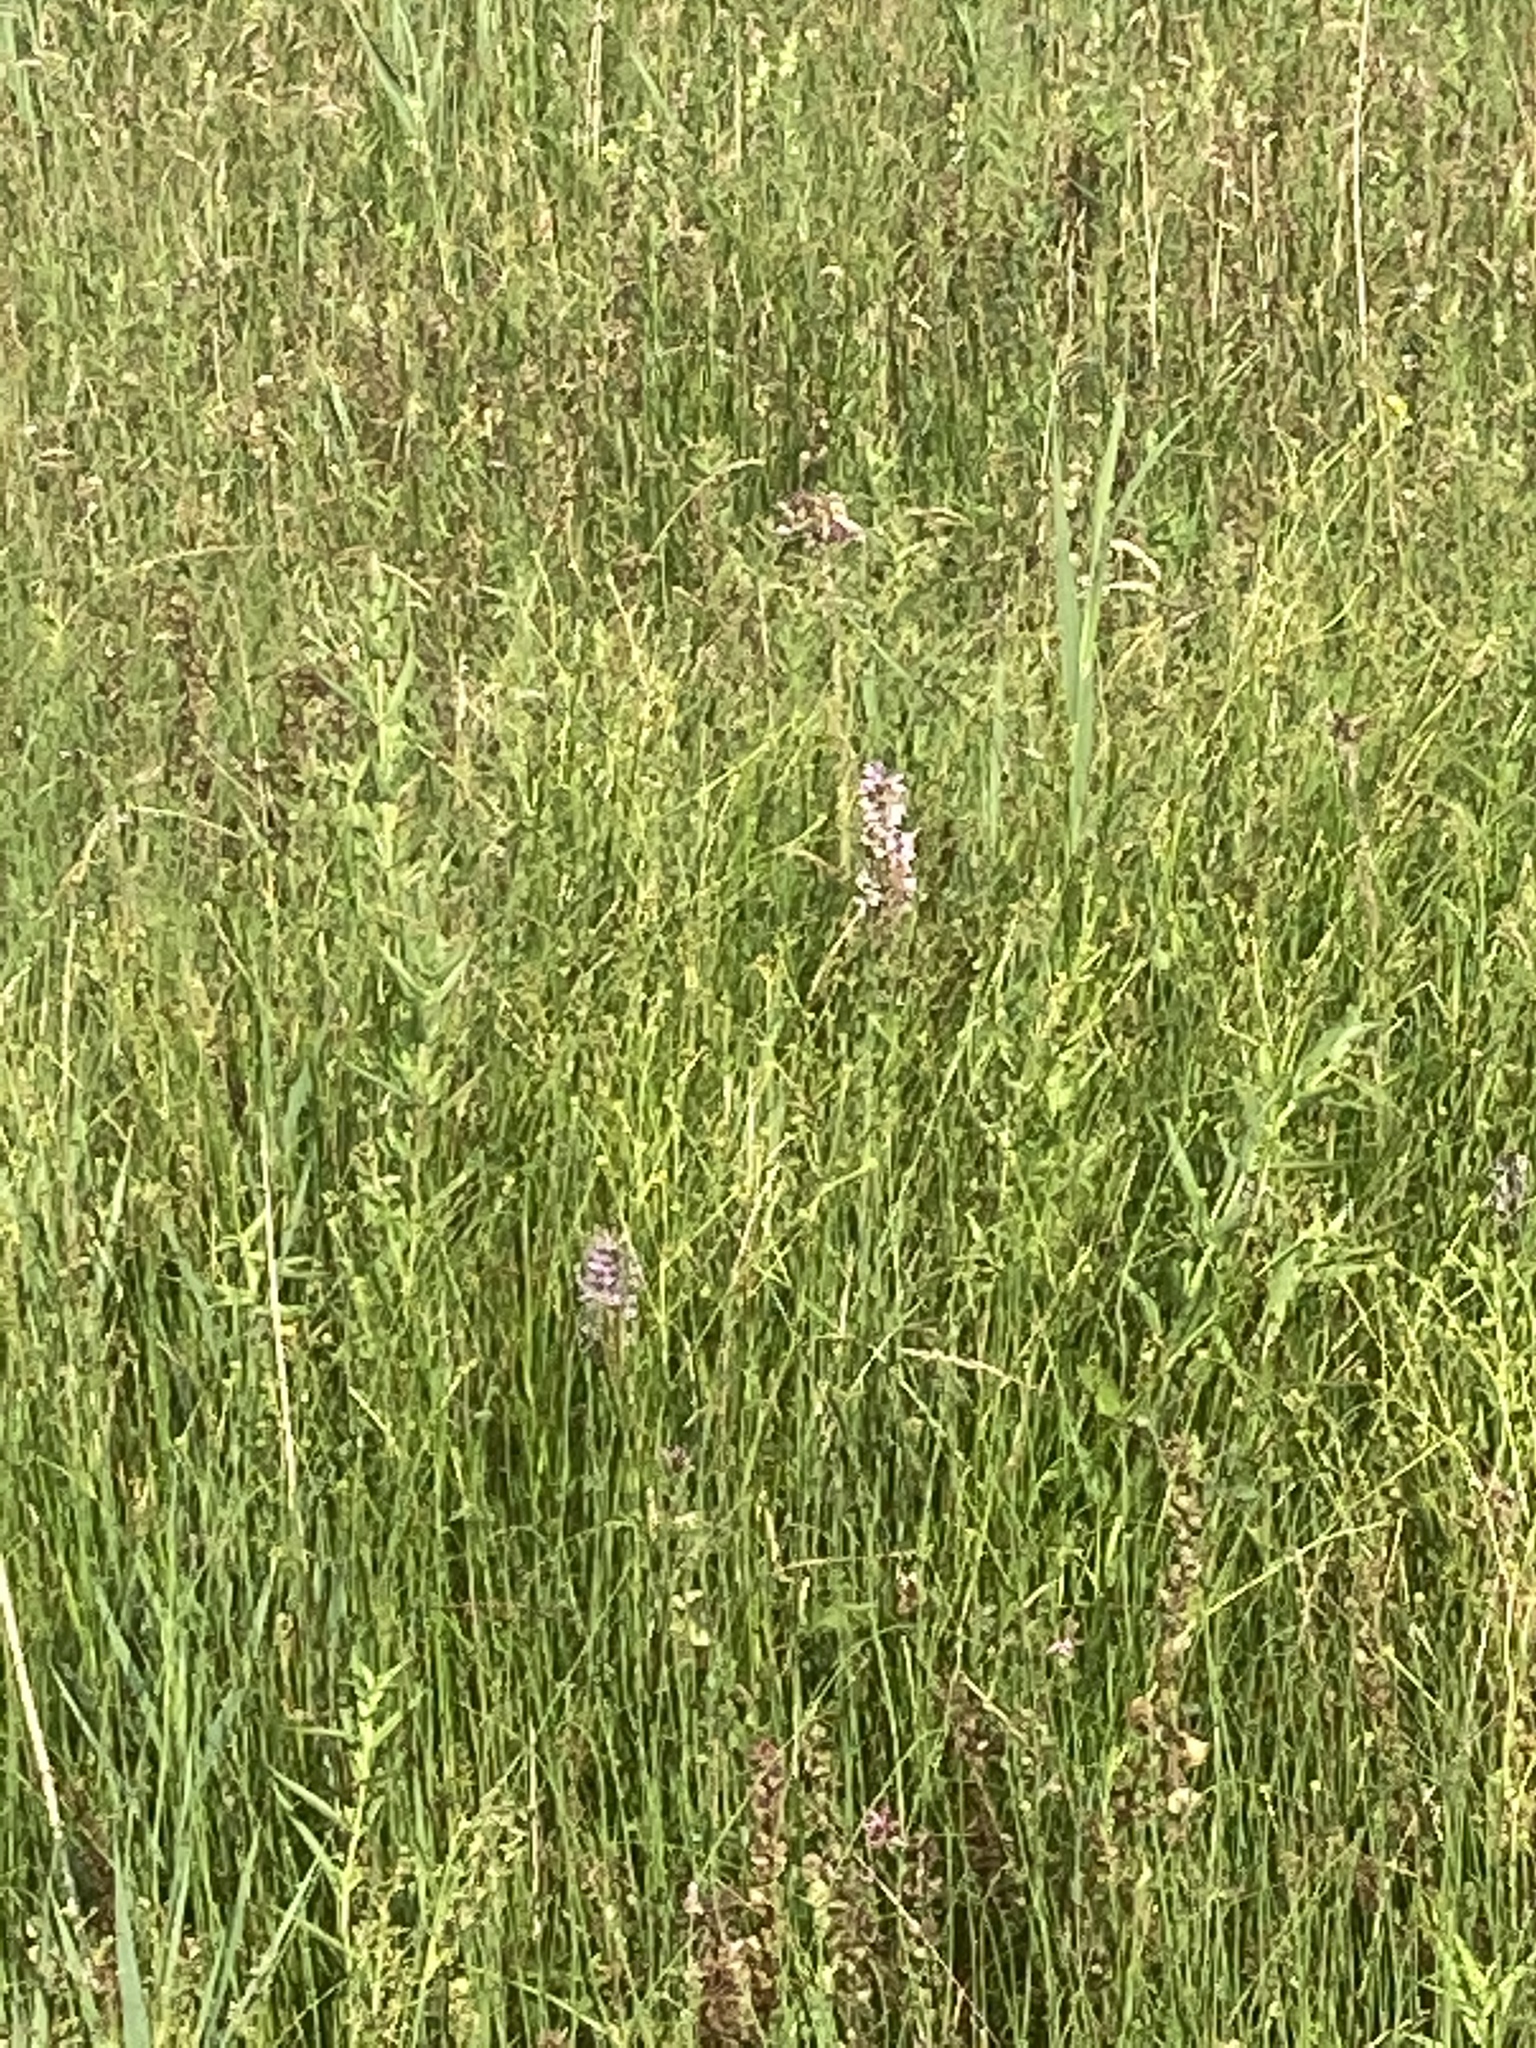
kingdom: Plantae
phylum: Tracheophyta
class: Liliopsida
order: Asparagales
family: Orchidaceae
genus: Dactylorhiza
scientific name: Dactylorhiza incarnata
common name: Early marsh-orchid
